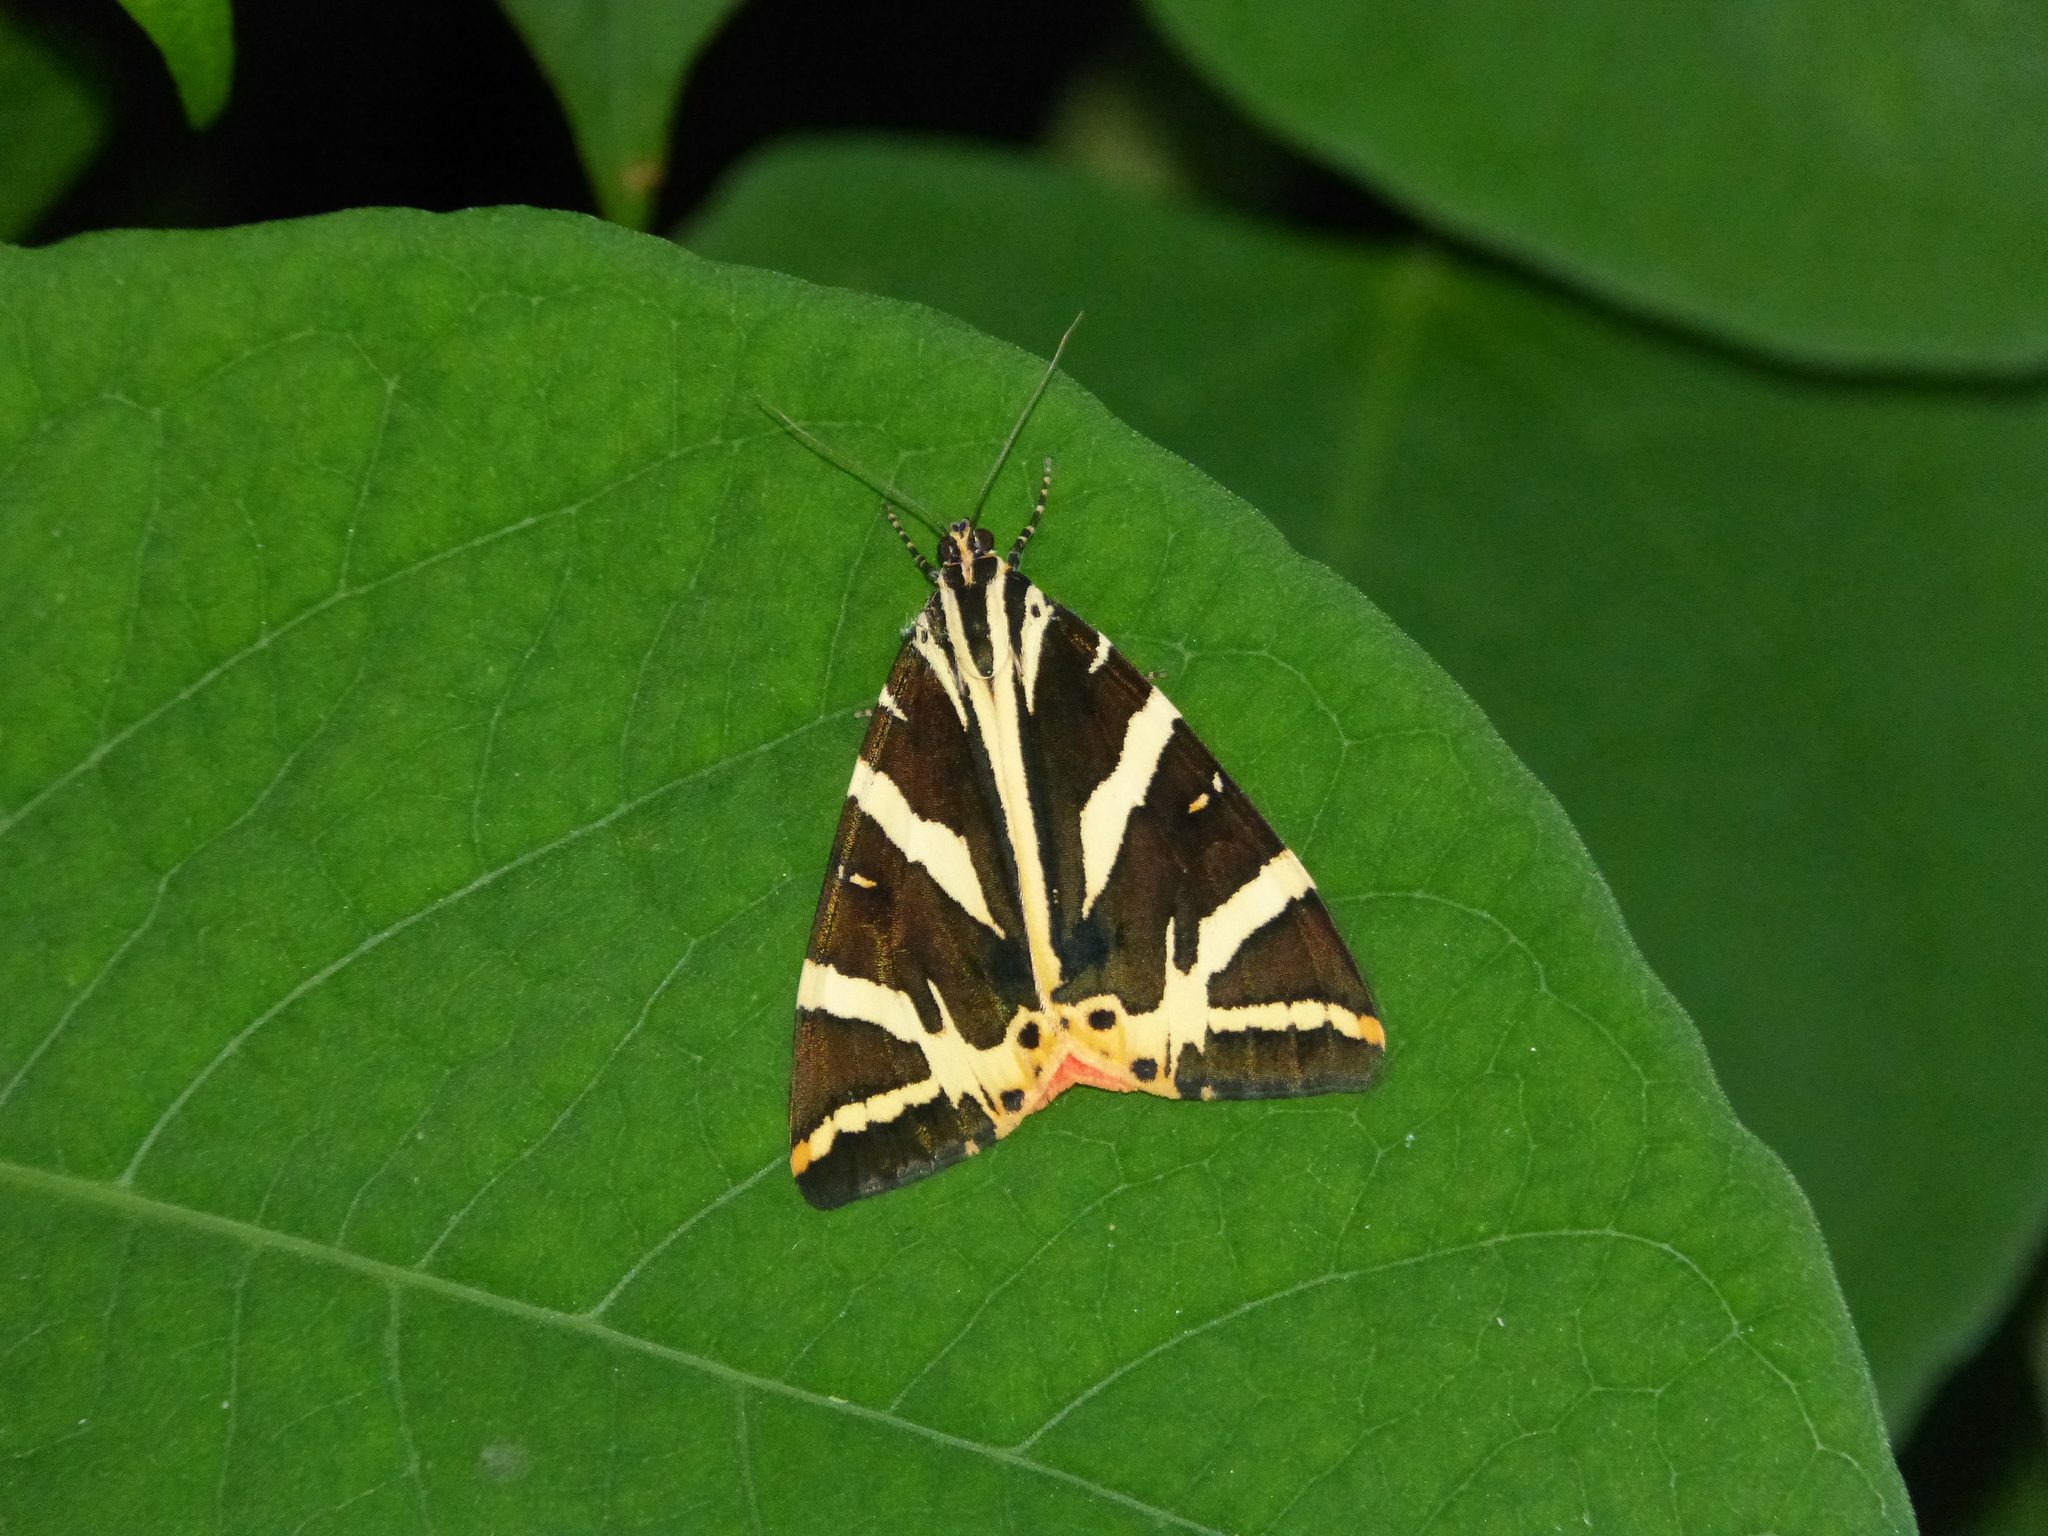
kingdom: Animalia
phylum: Arthropoda
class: Insecta
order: Lepidoptera
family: Erebidae
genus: Euplagia
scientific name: Euplagia quadripunctaria
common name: Jersey tiger
